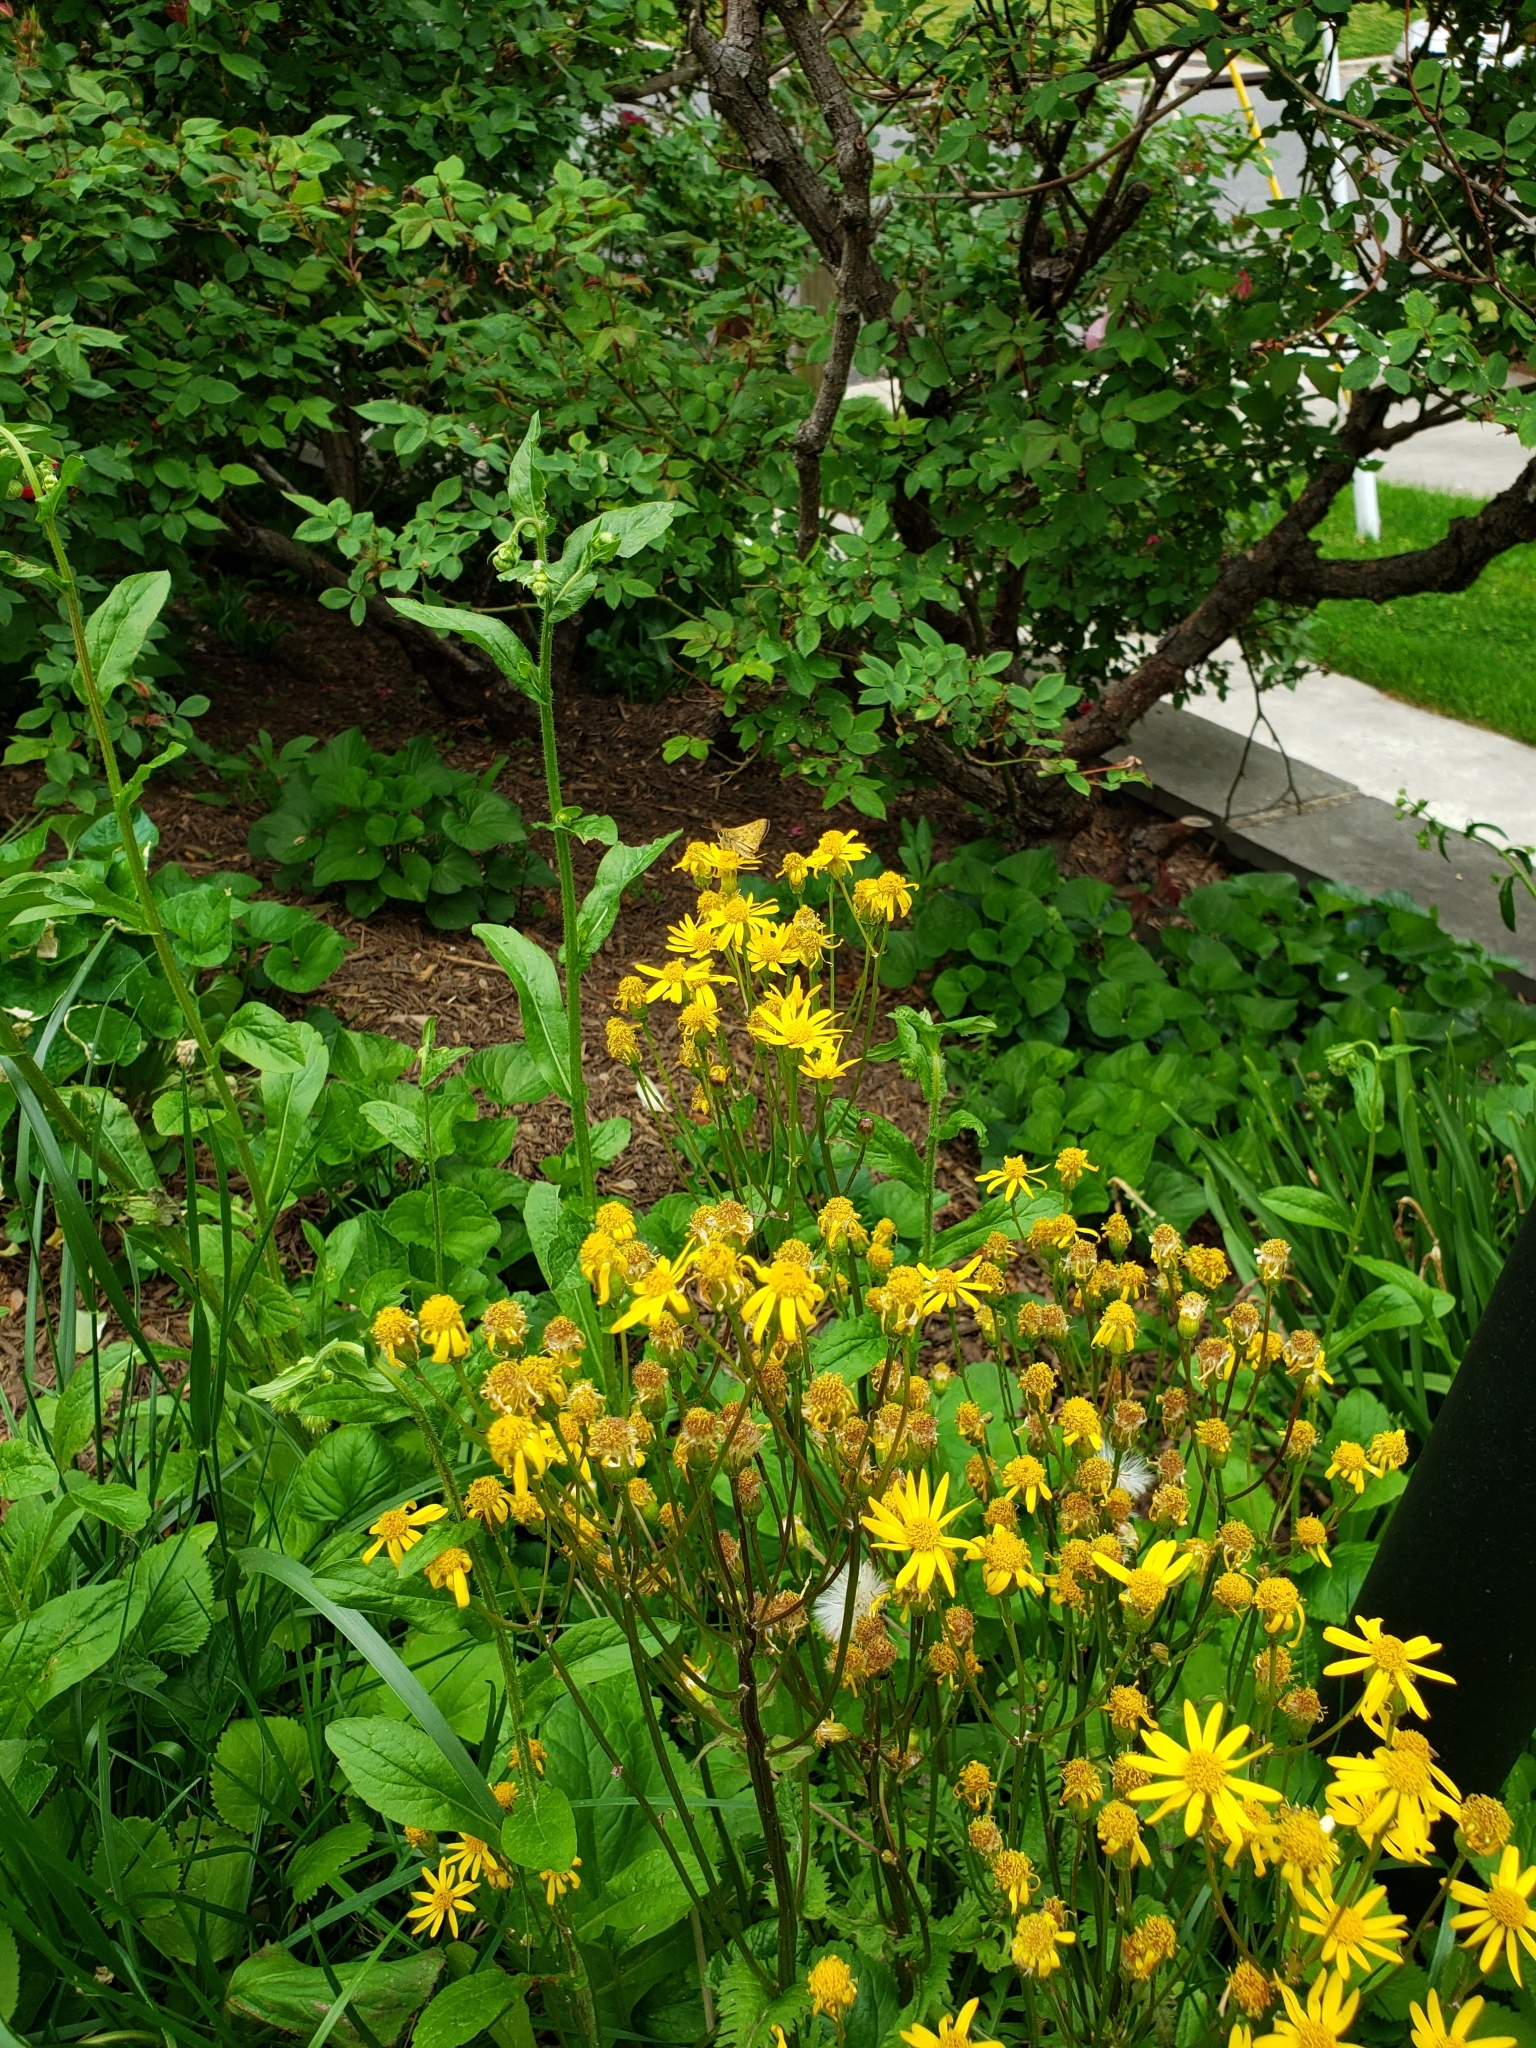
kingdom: Animalia
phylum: Arthropoda
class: Insecta
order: Lepidoptera
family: Hesperiidae
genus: Atalopedes
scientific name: Atalopedes
